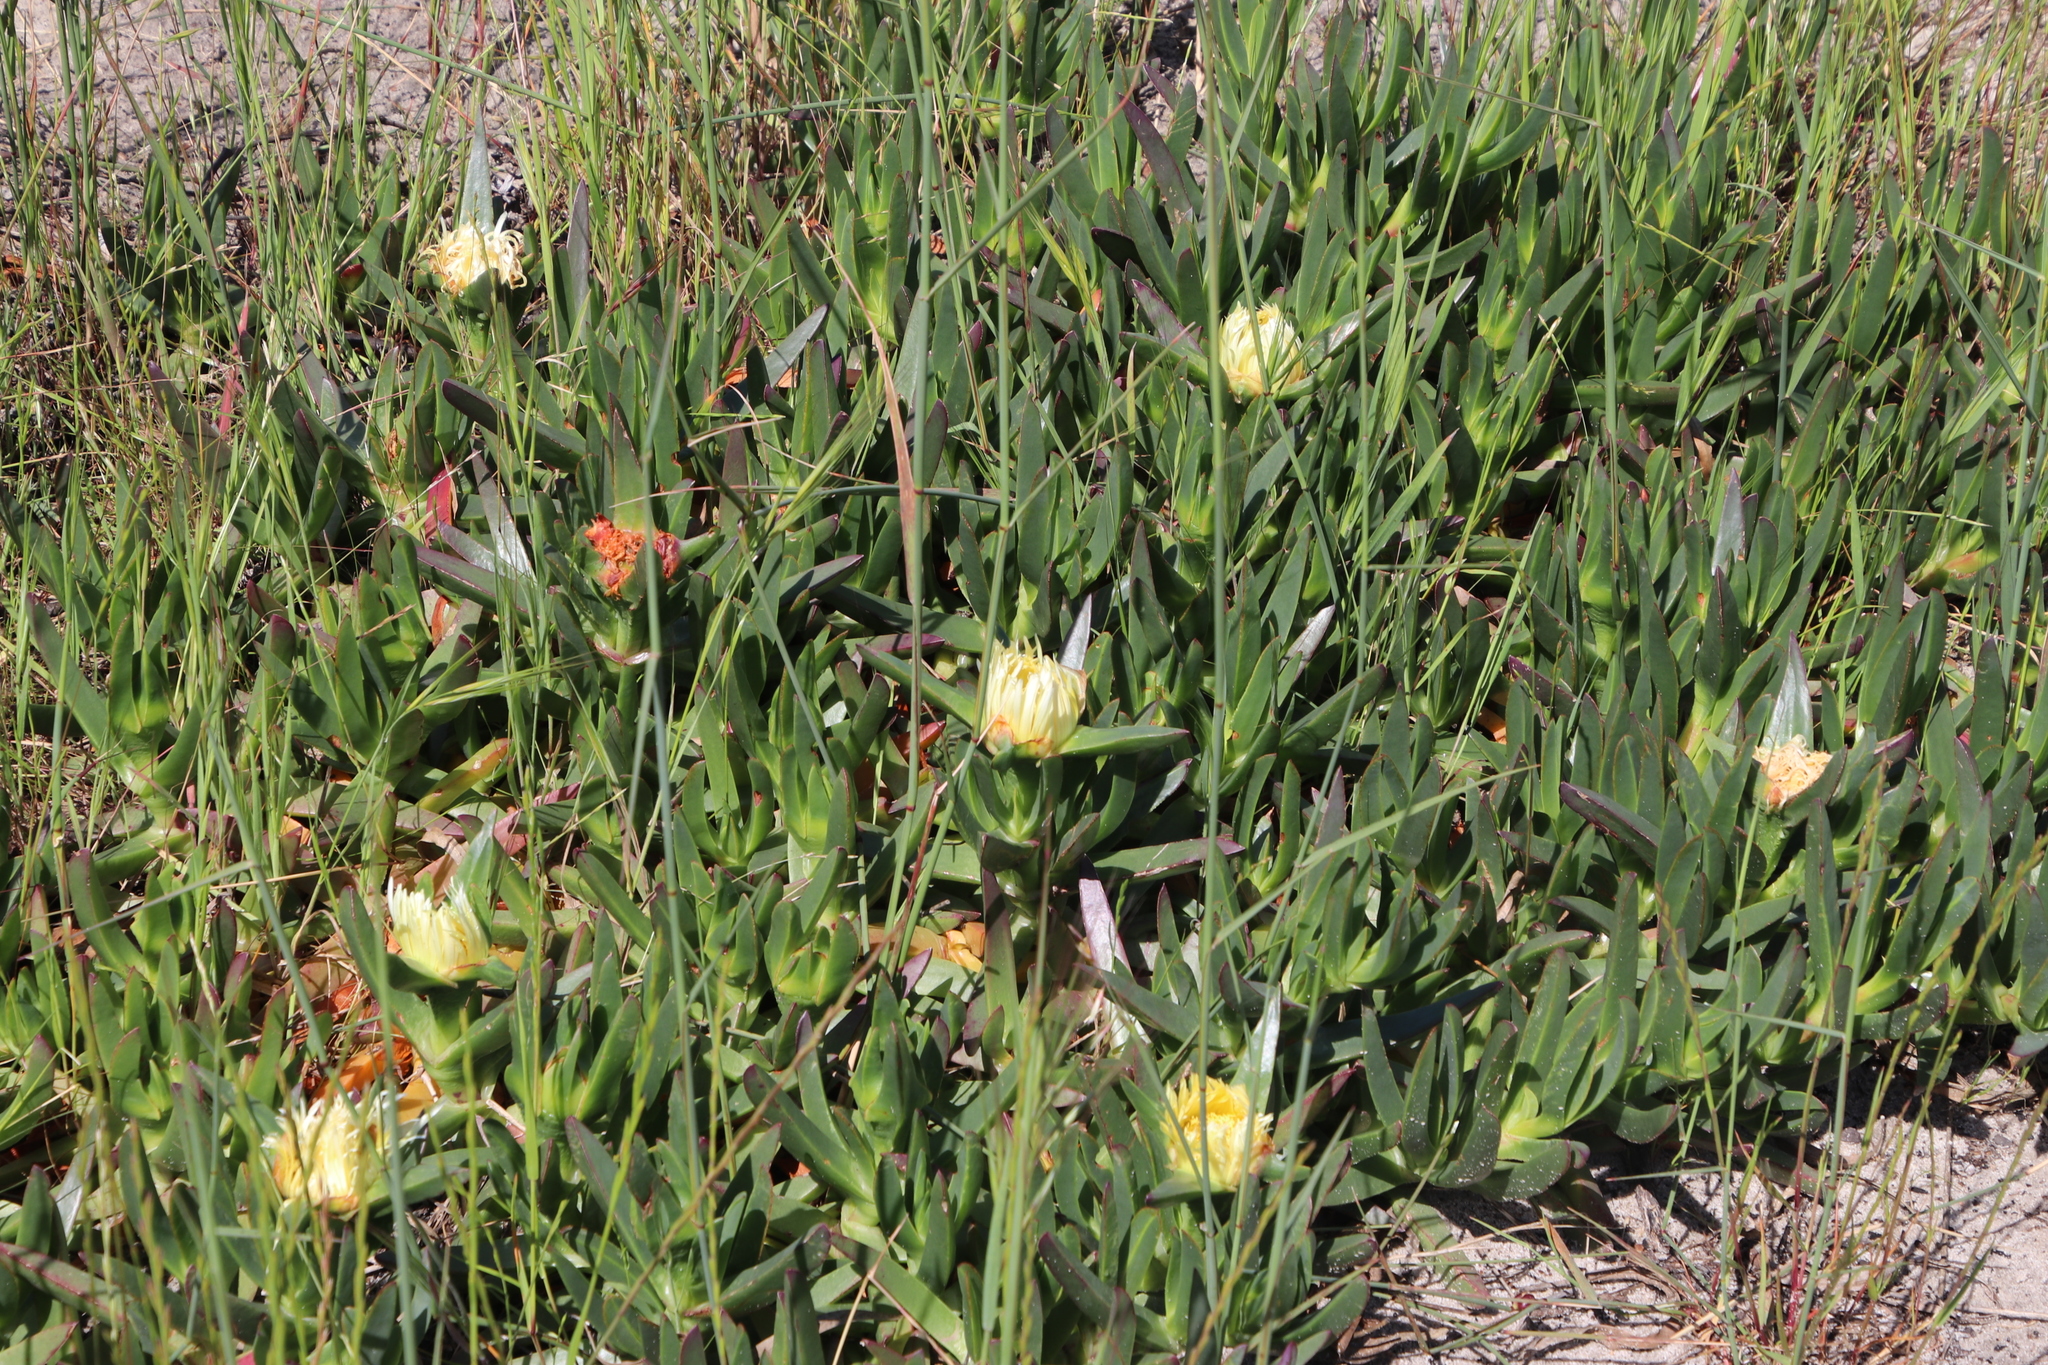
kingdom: Plantae
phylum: Tracheophyta
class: Magnoliopsida
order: Caryophyllales
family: Aizoaceae
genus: Carpobrotus
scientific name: Carpobrotus edulis
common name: Hottentot-fig
